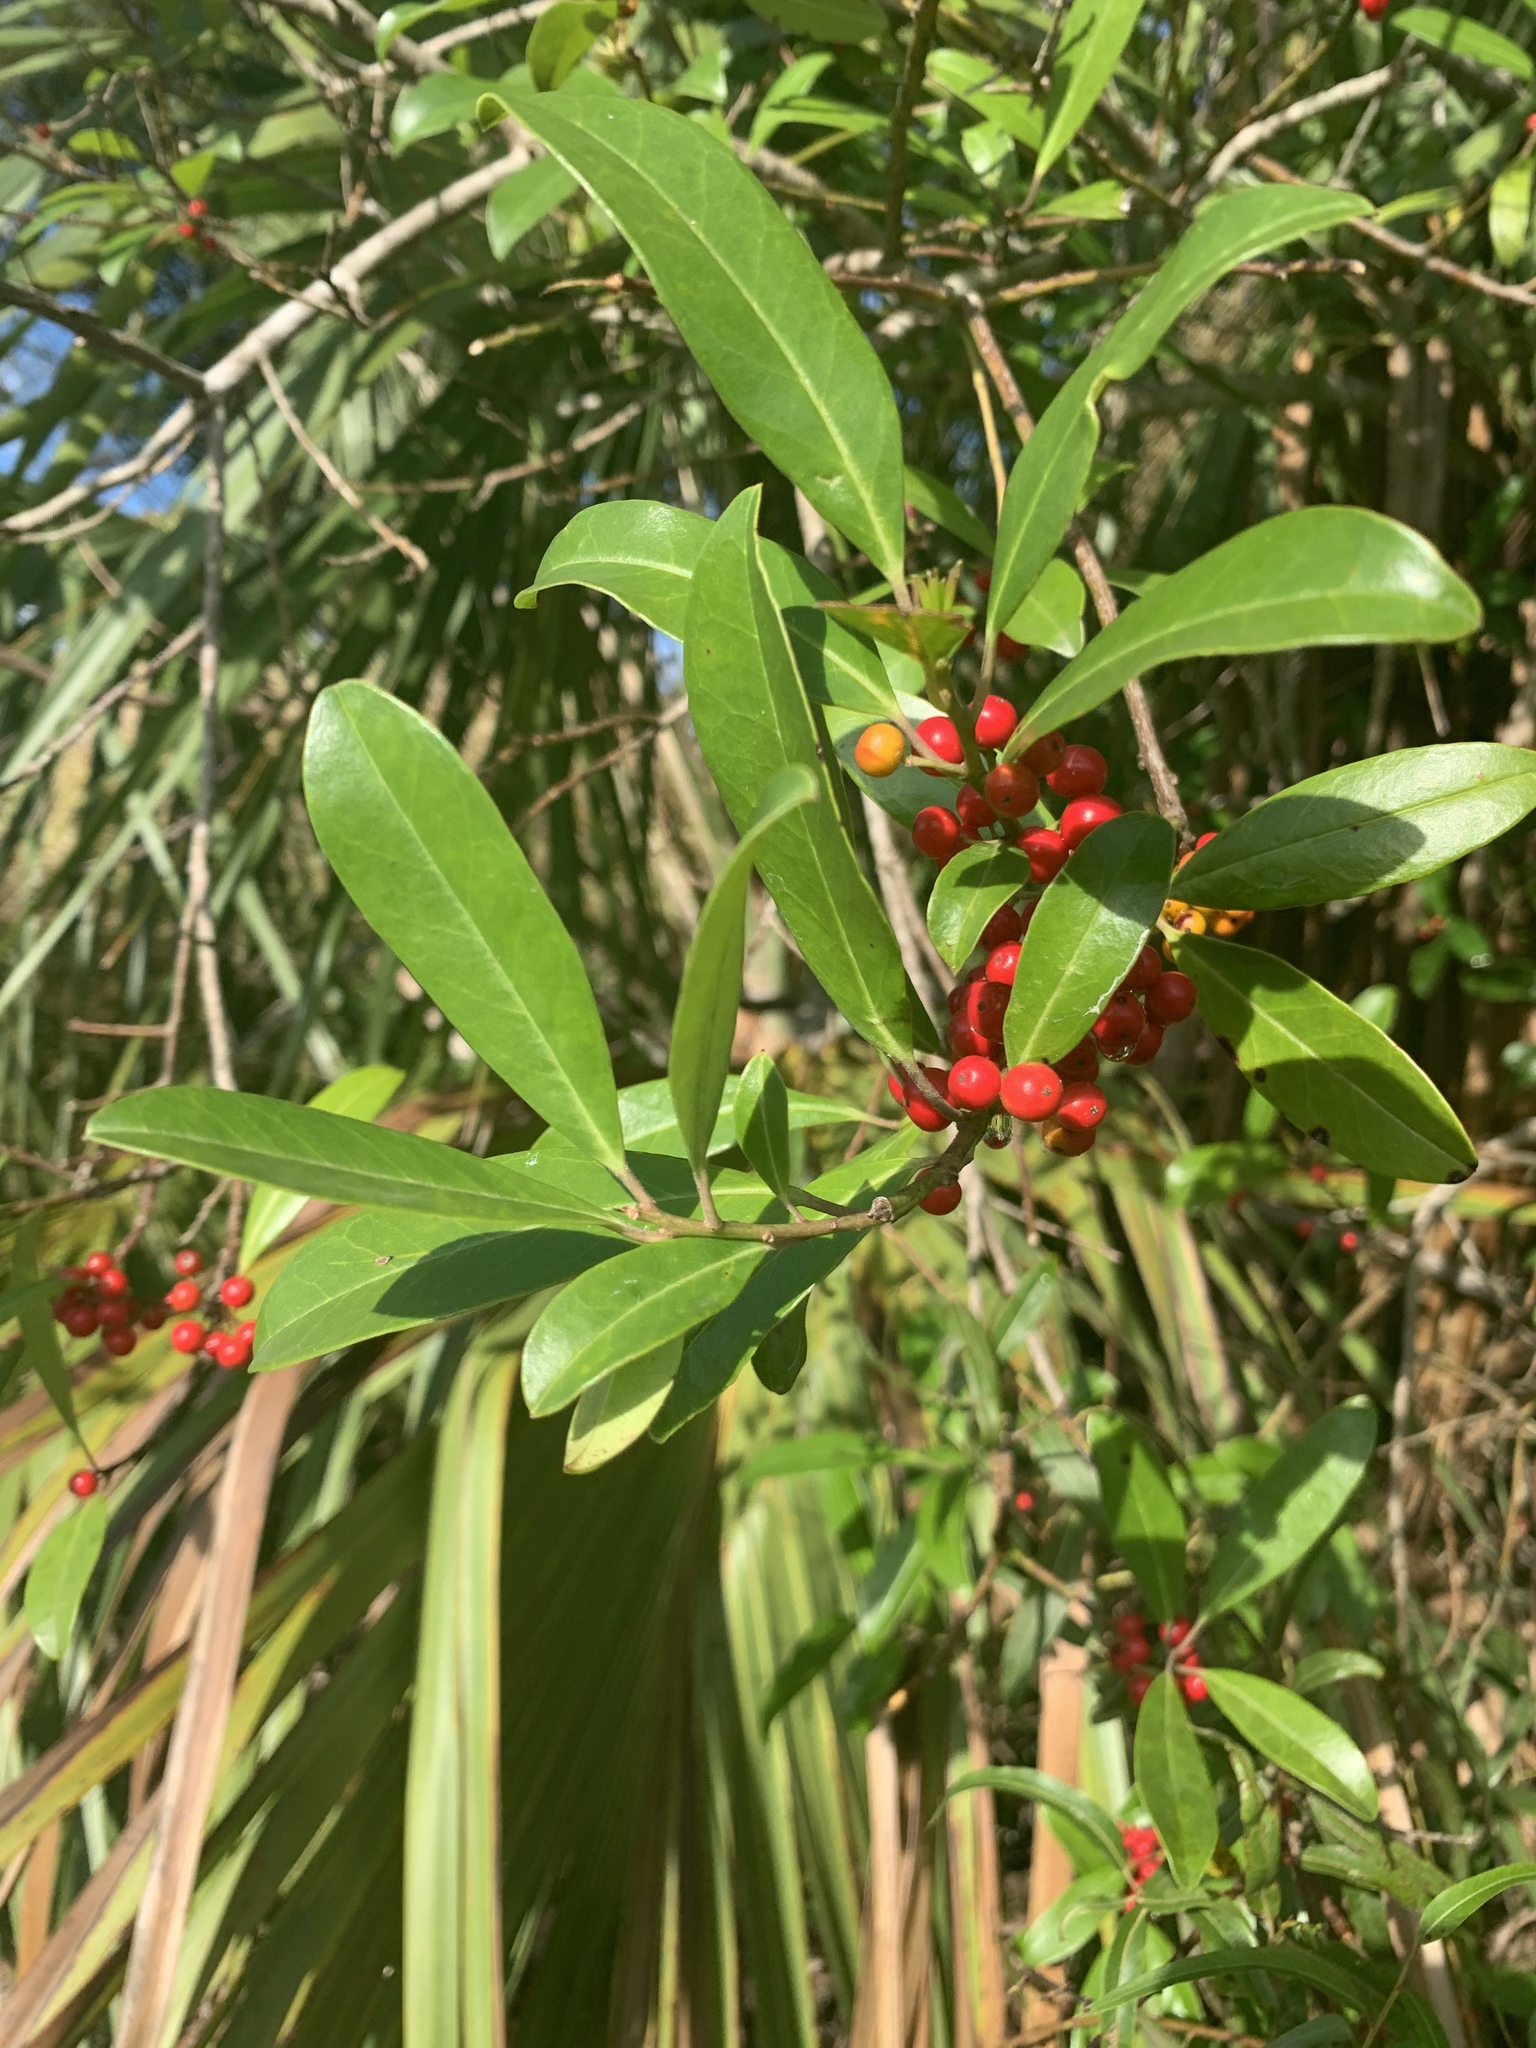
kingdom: Plantae
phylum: Tracheophyta
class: Magnoliopsida
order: Aquifoliales
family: Aquifoliaceae
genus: Ilex
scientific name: Ilex cassine
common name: Dahoon
